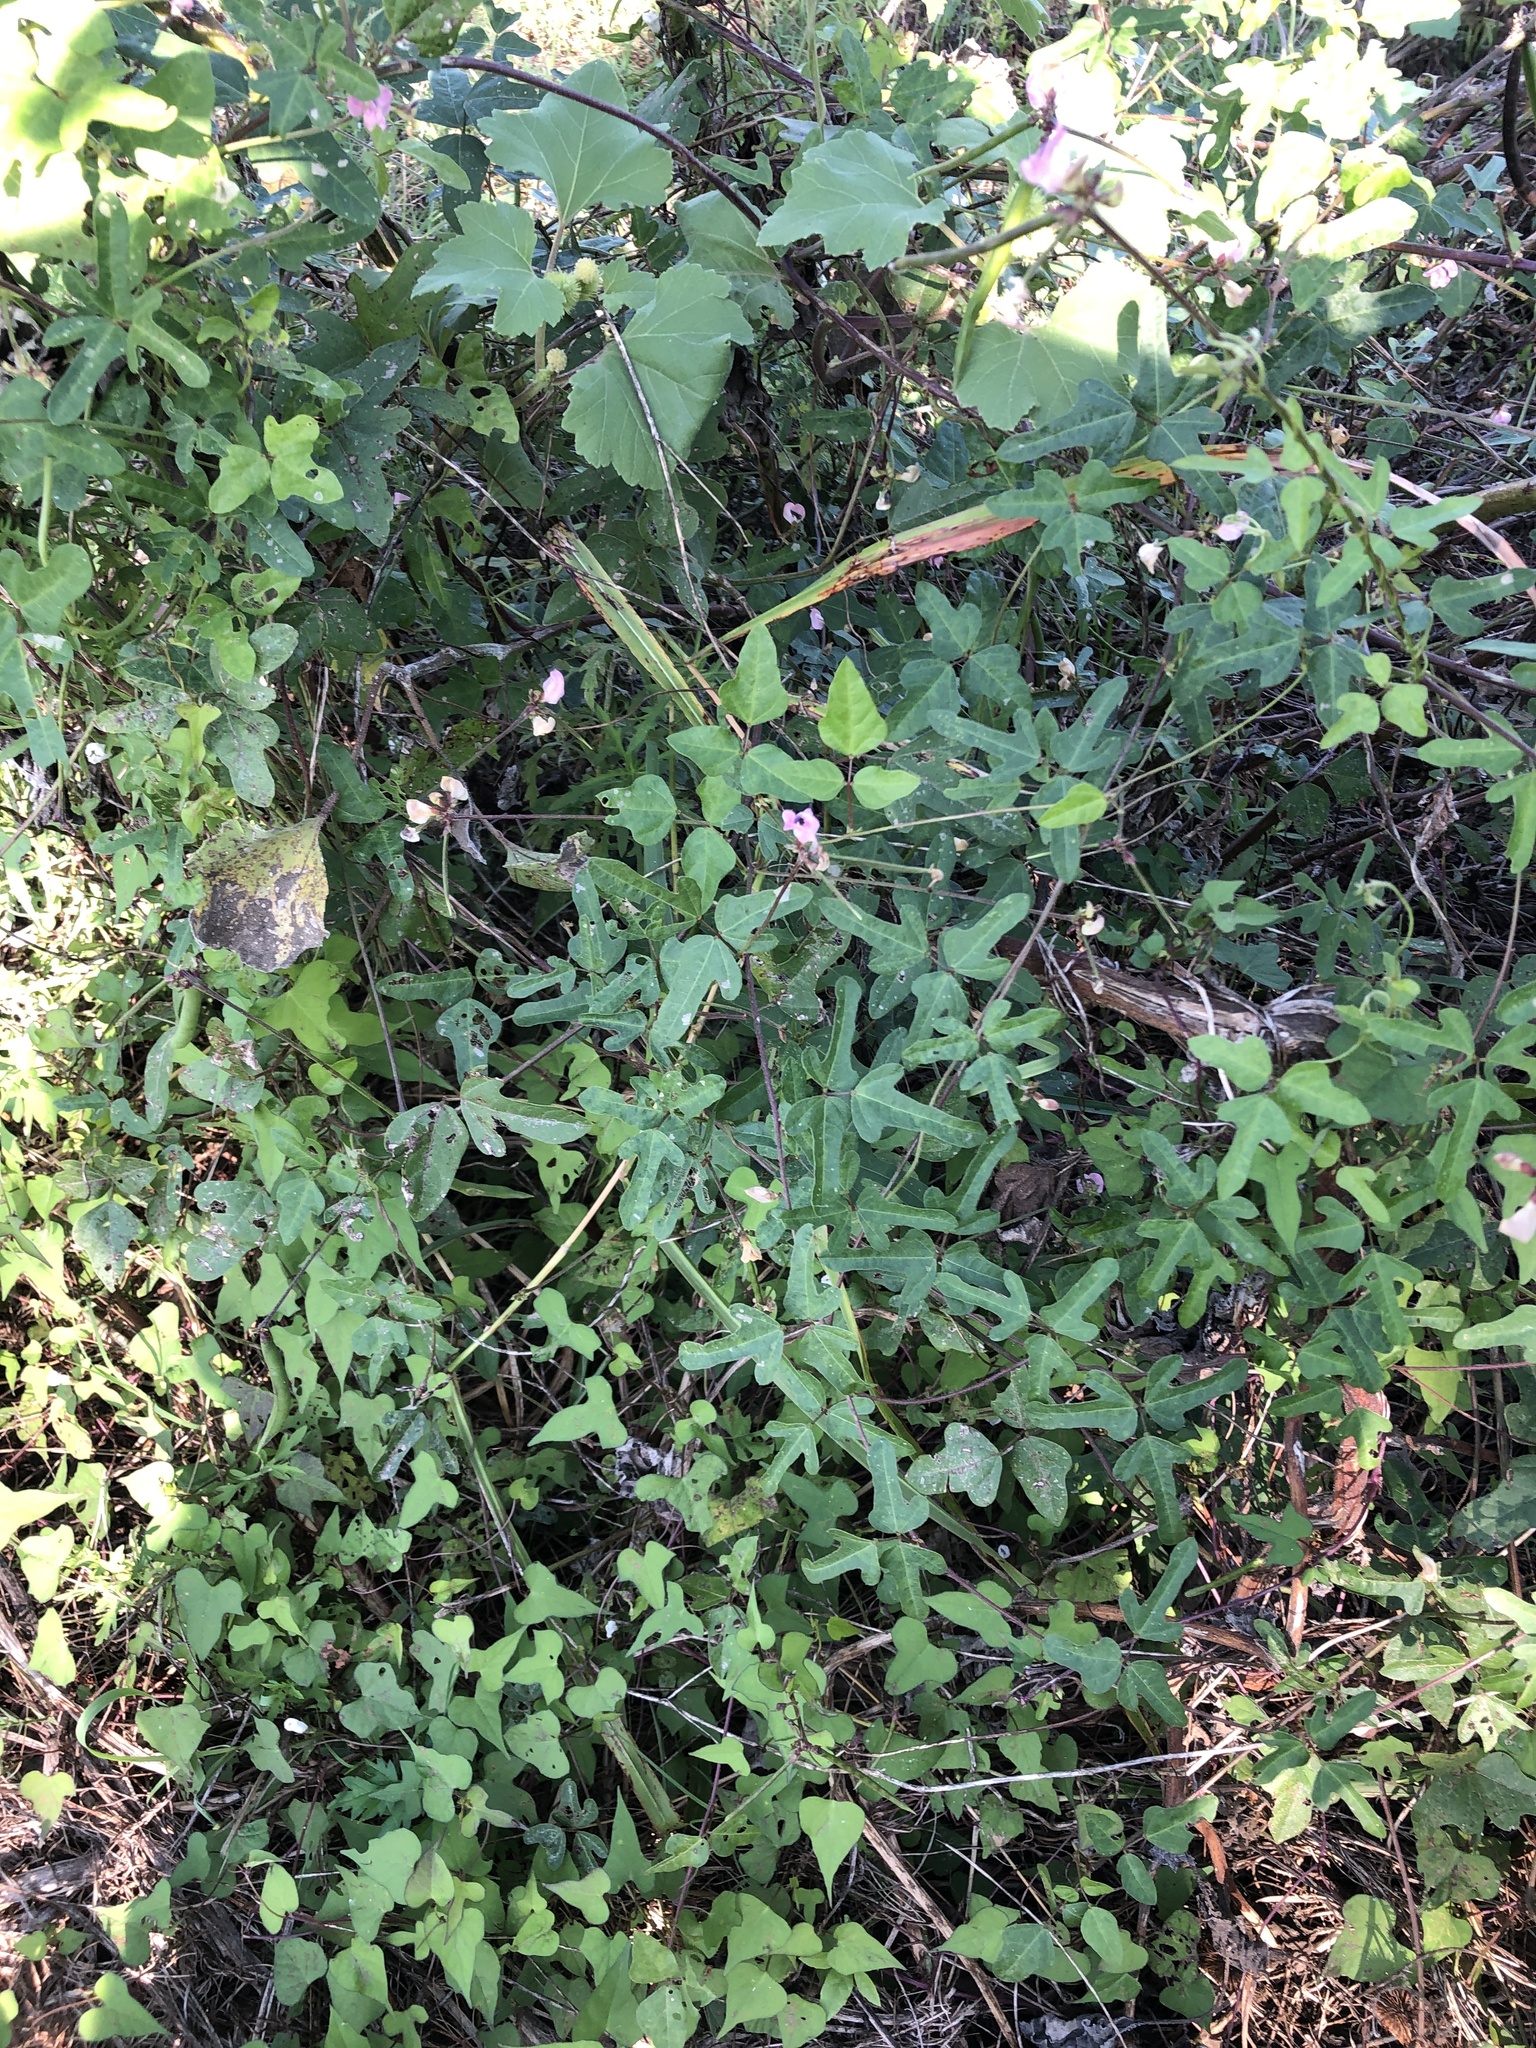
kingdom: Plantae
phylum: Tracheophyta
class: Magnoliopsida
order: Fabales
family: Fabaceae
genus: Strophostyles
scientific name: Strophostyles helvola
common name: Trailing wild bean
